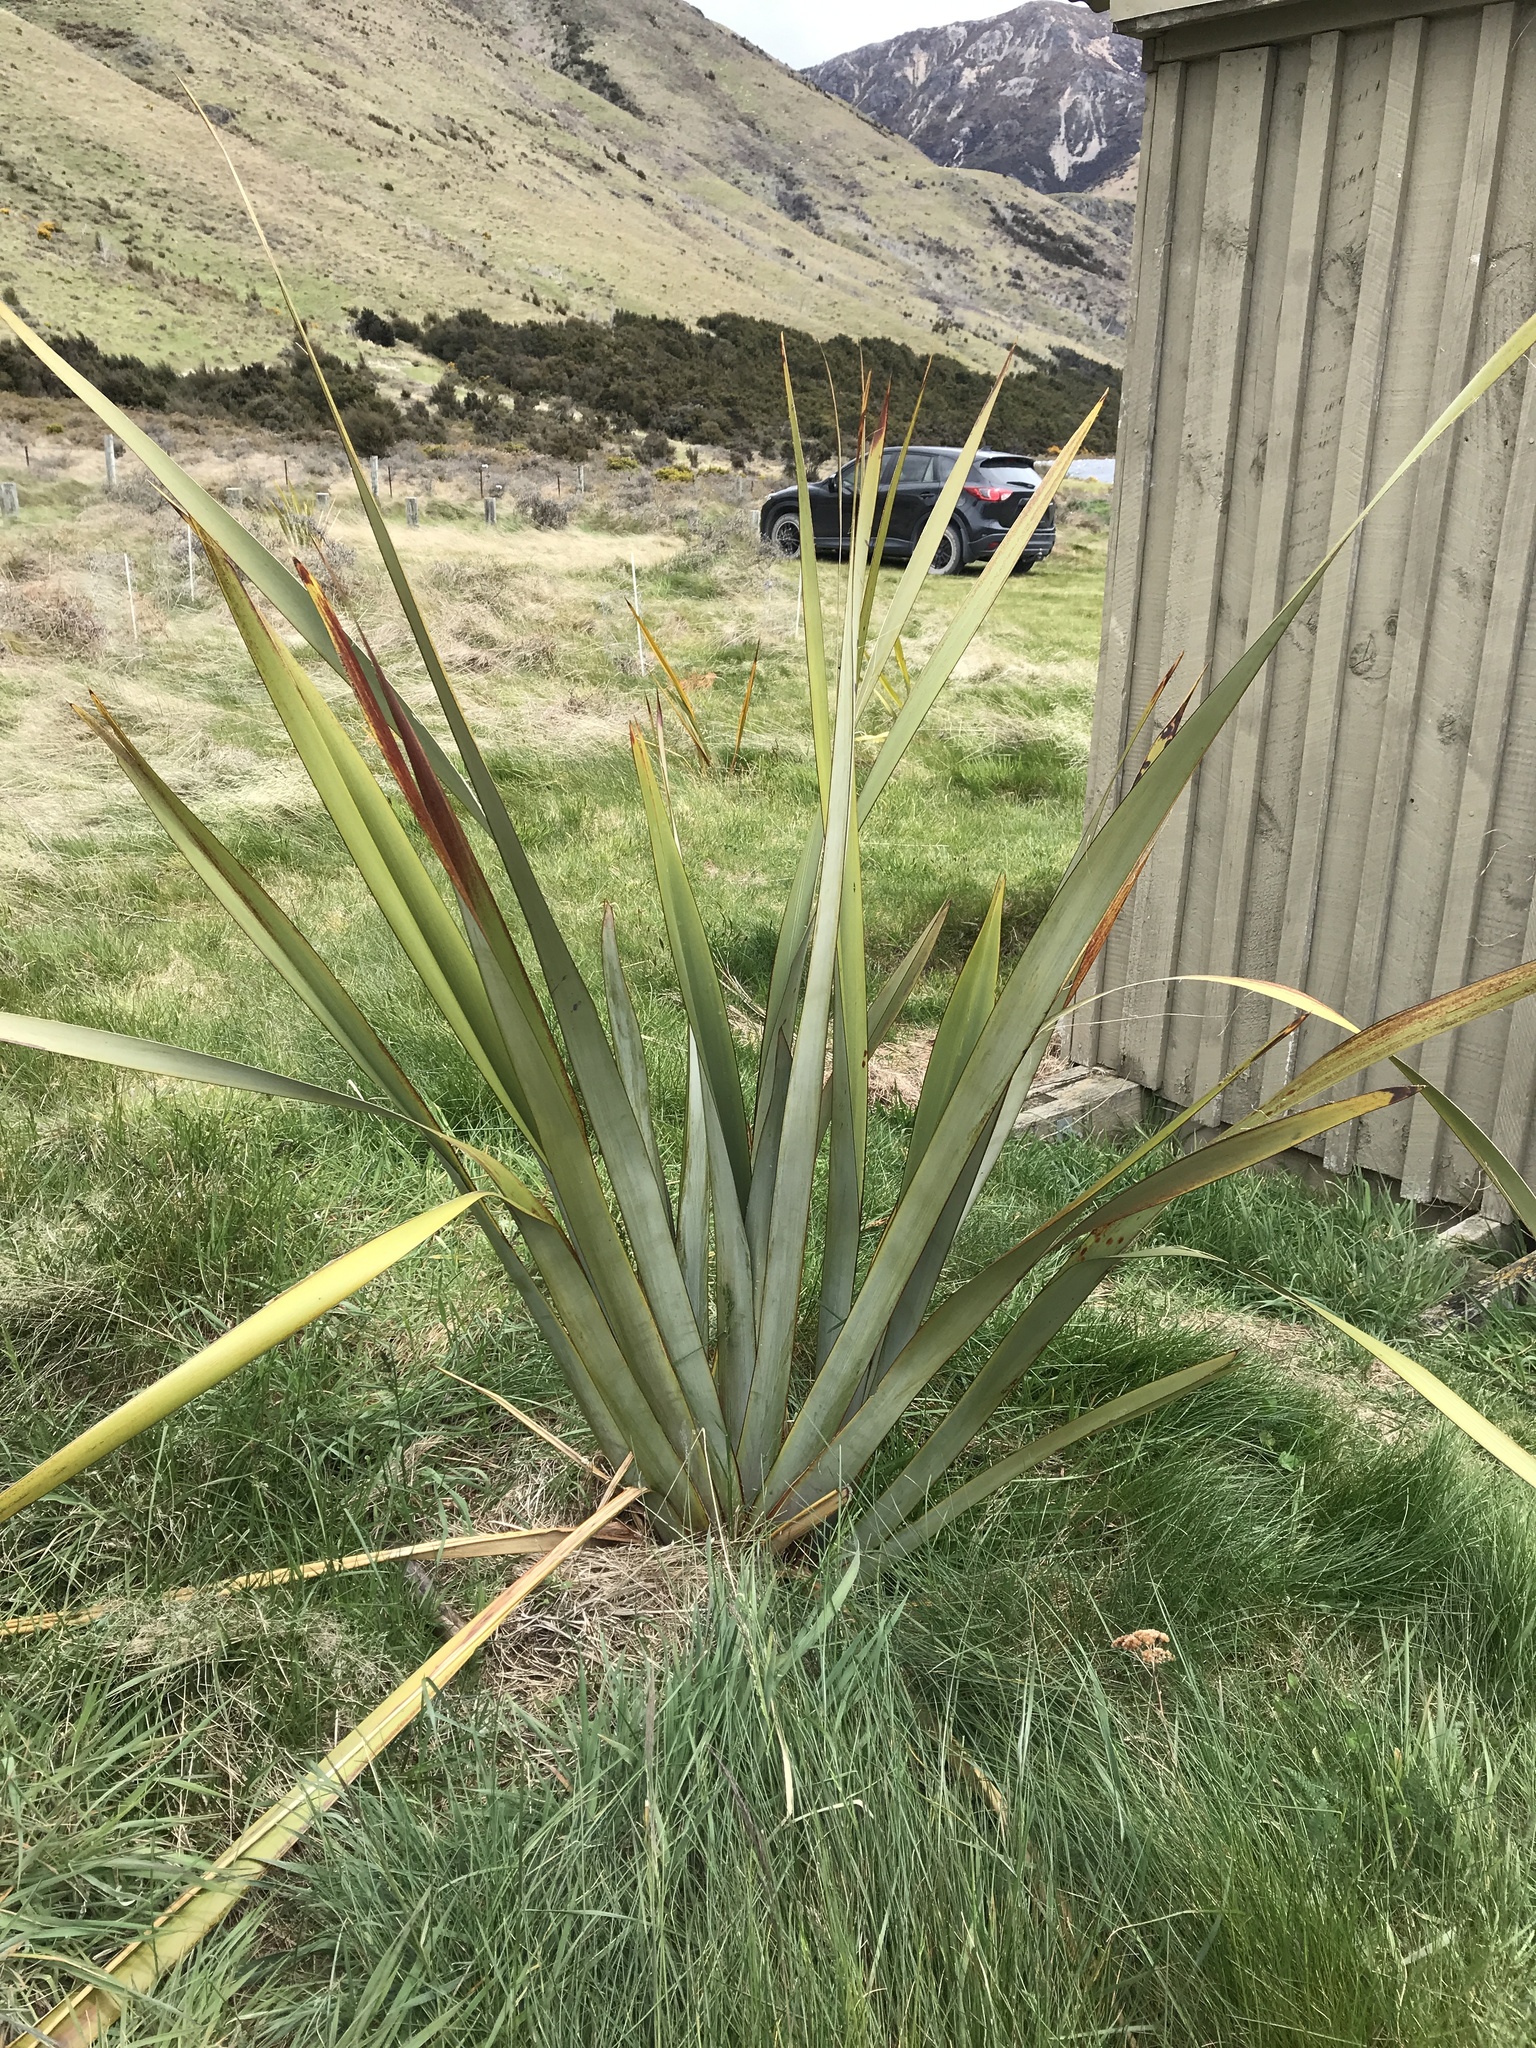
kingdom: Plantae
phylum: Tracheophyta
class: Liliopsida
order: Asparagales
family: Asphodelaceae
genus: Phormium
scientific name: Phormium tenax
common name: New zealand flax
